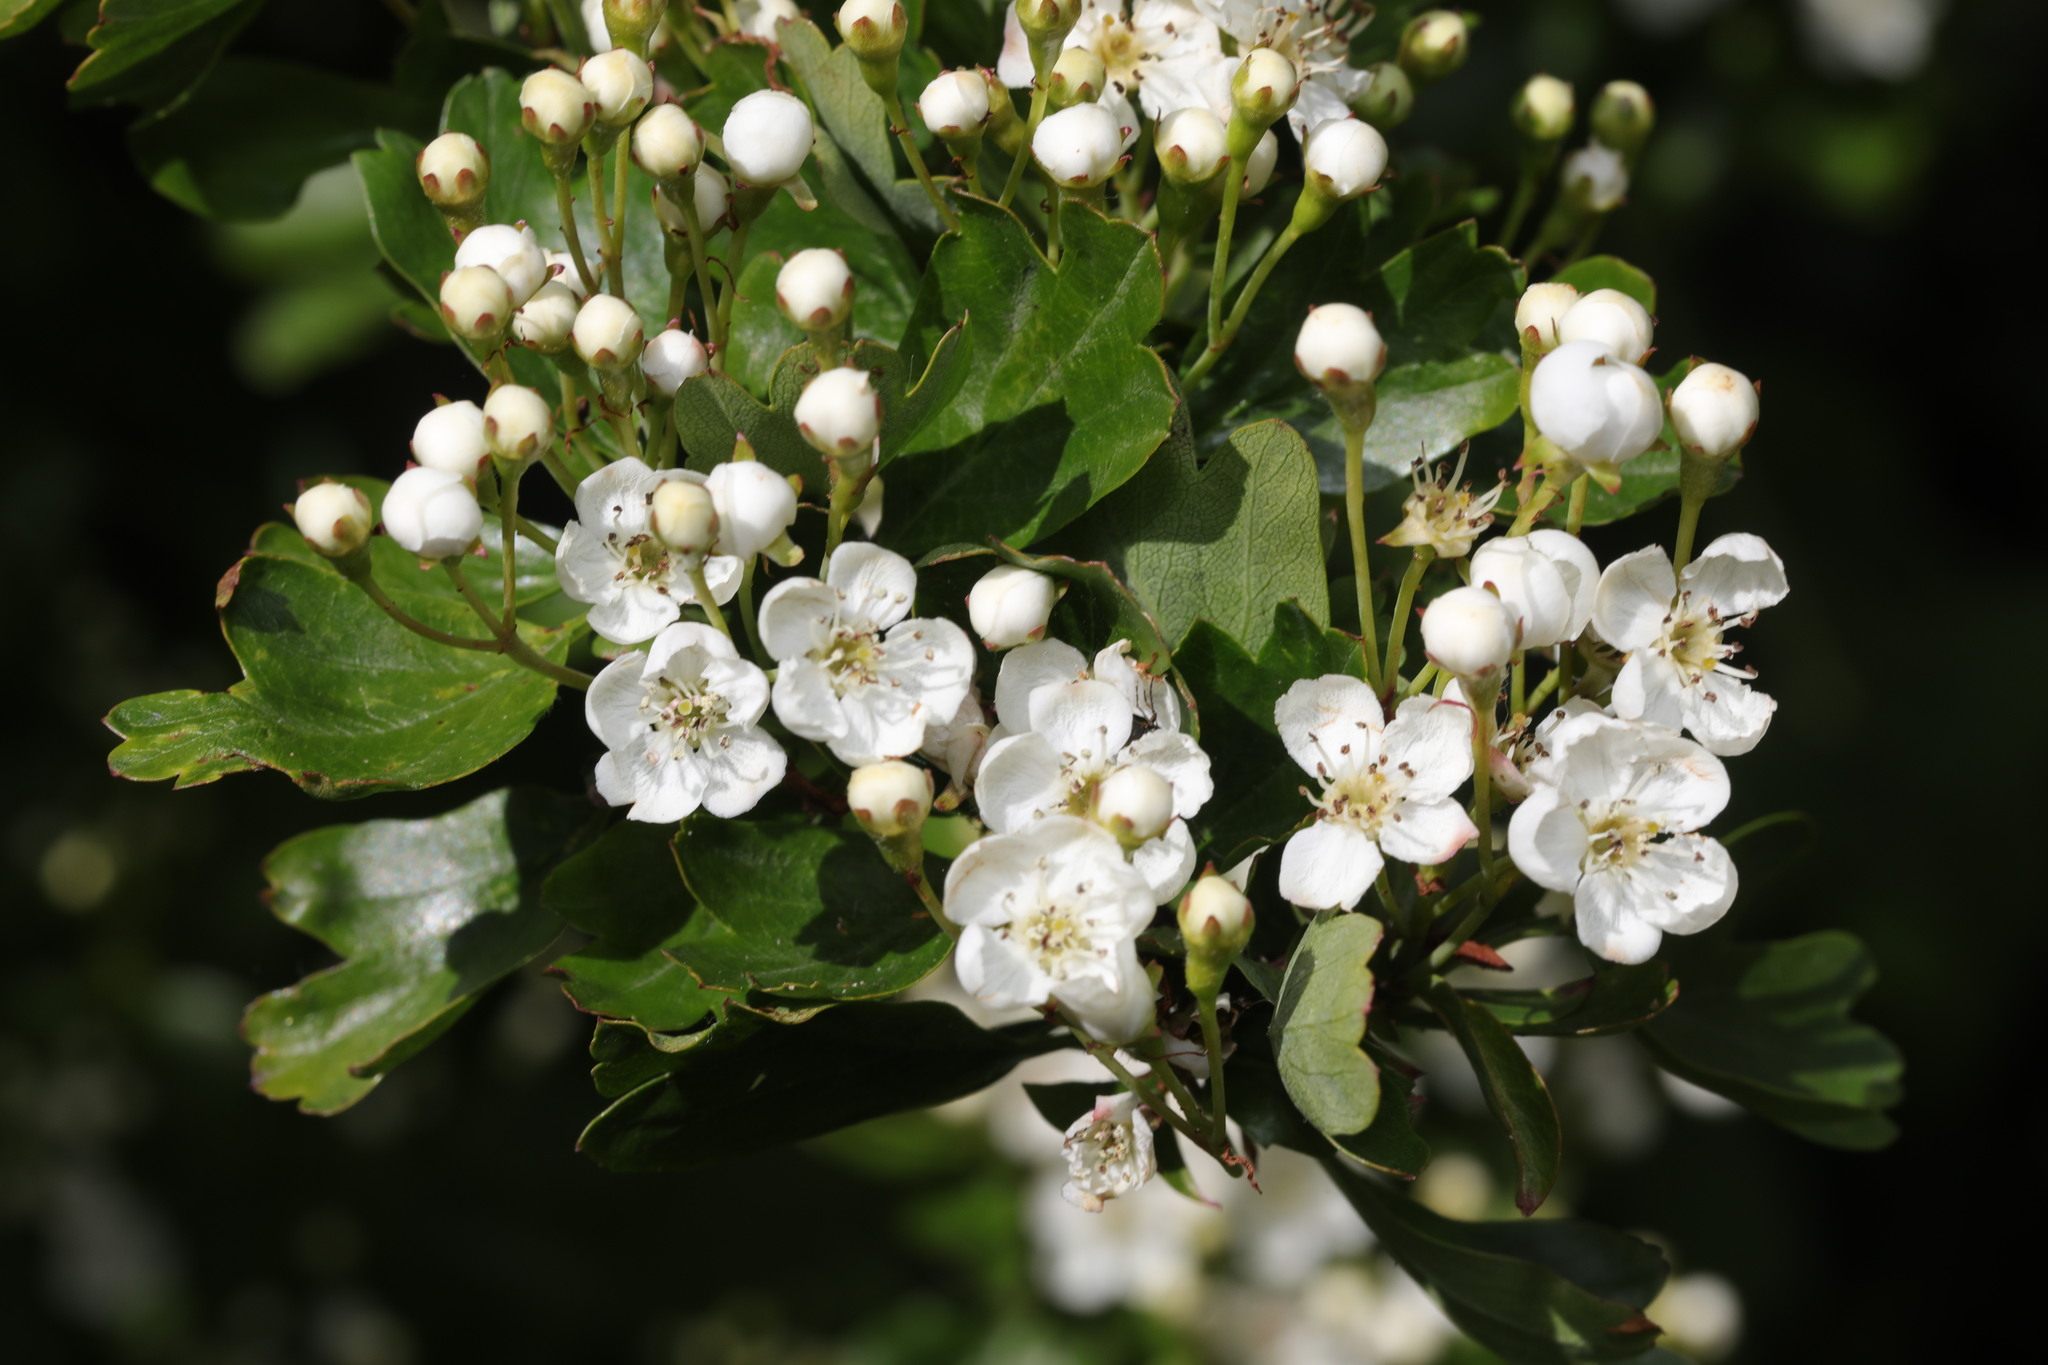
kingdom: Plantae
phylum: Tracheophyta
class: Magnoliopsida
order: Rosales
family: Rosaceae
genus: Crataegus
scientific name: Crataegus monogyna
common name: Hawthorn
